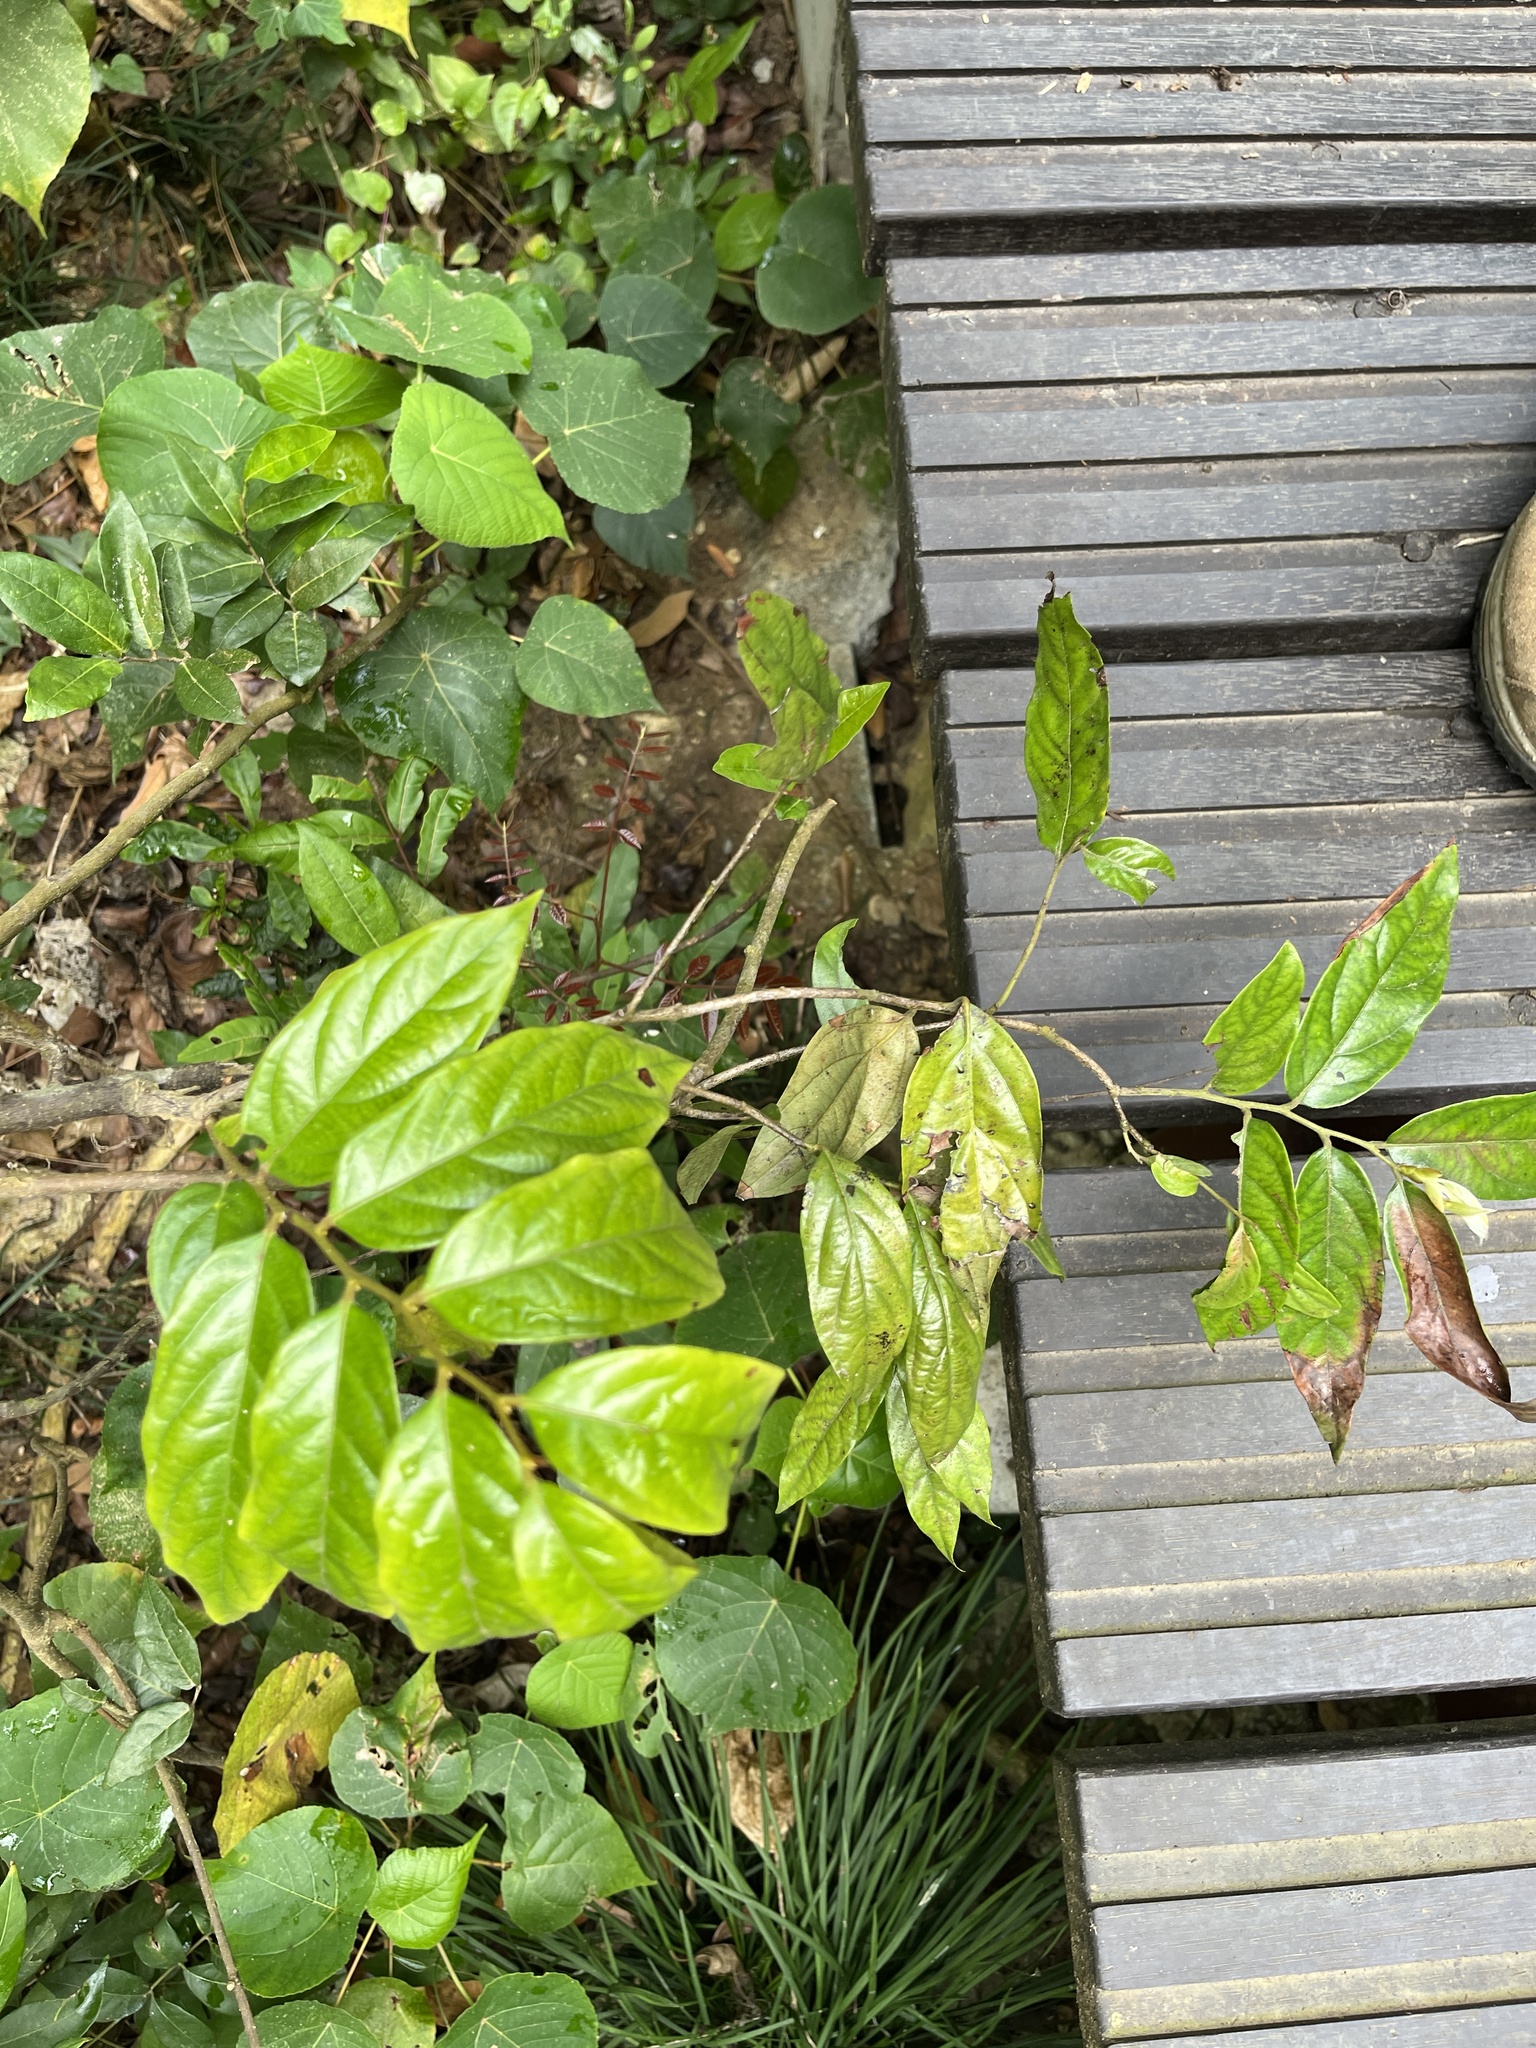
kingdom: Plantae
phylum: Tracheophyta
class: Magnoliopsida
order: Malpighiales
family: Phyllanthaceae
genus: Glochidion
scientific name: Glochidion philippicum
